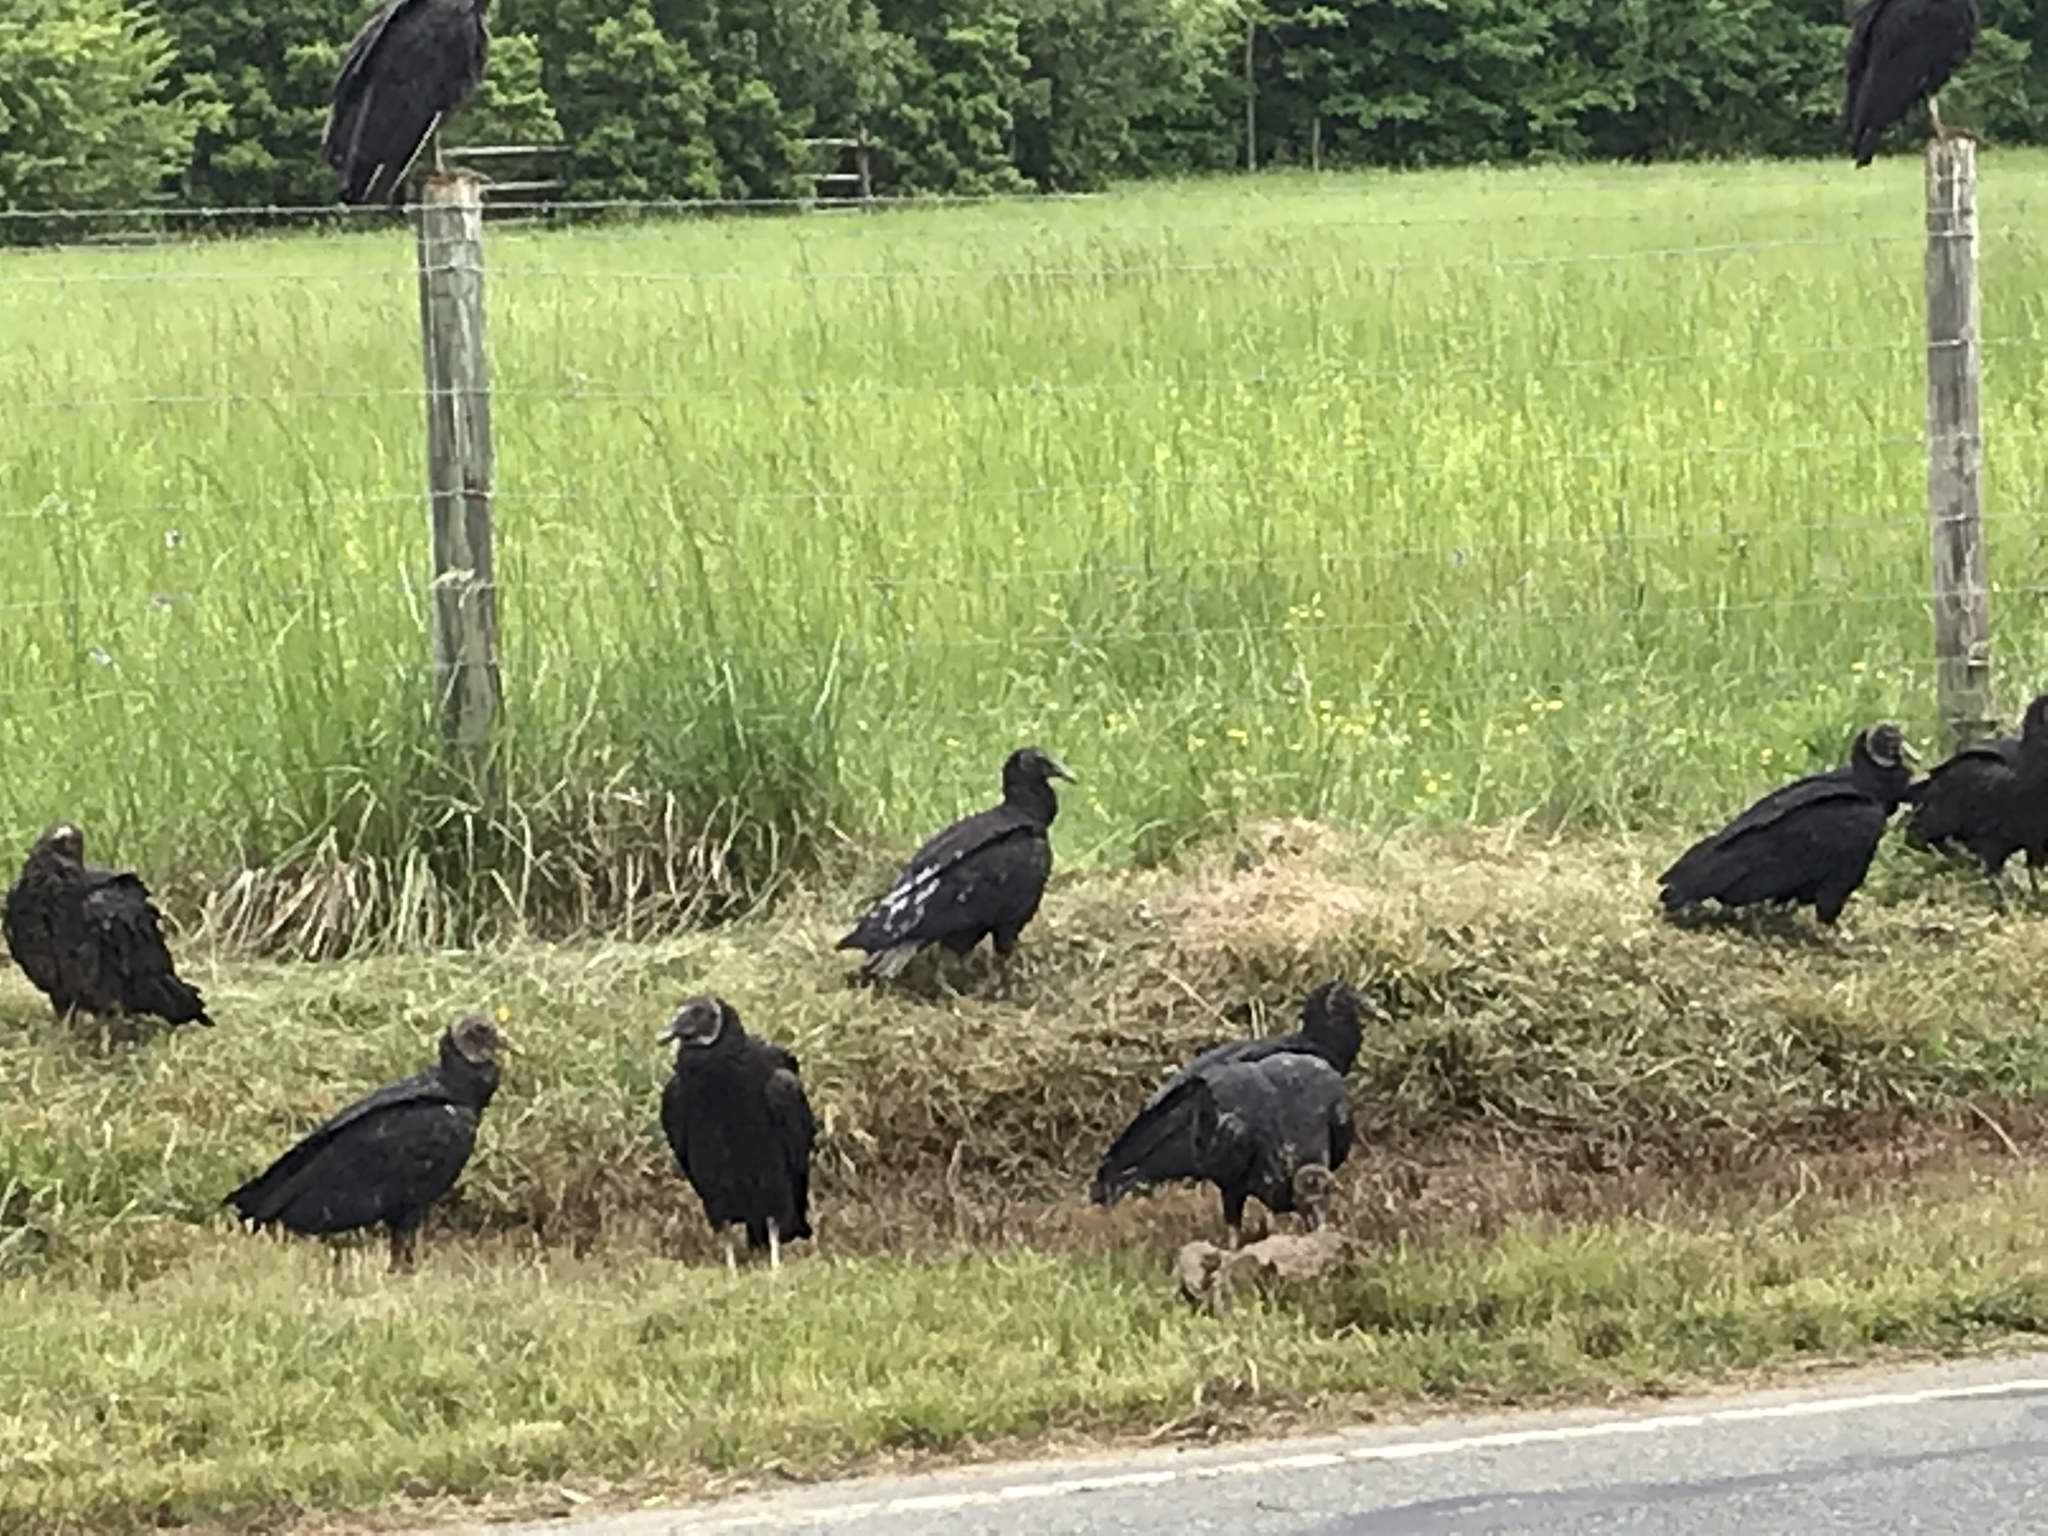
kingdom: Animalia
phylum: Chordata
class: Aves
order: Accipitriformes
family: Cathartidae
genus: Coragyps
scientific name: Coragyps atratus
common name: Black vulture
